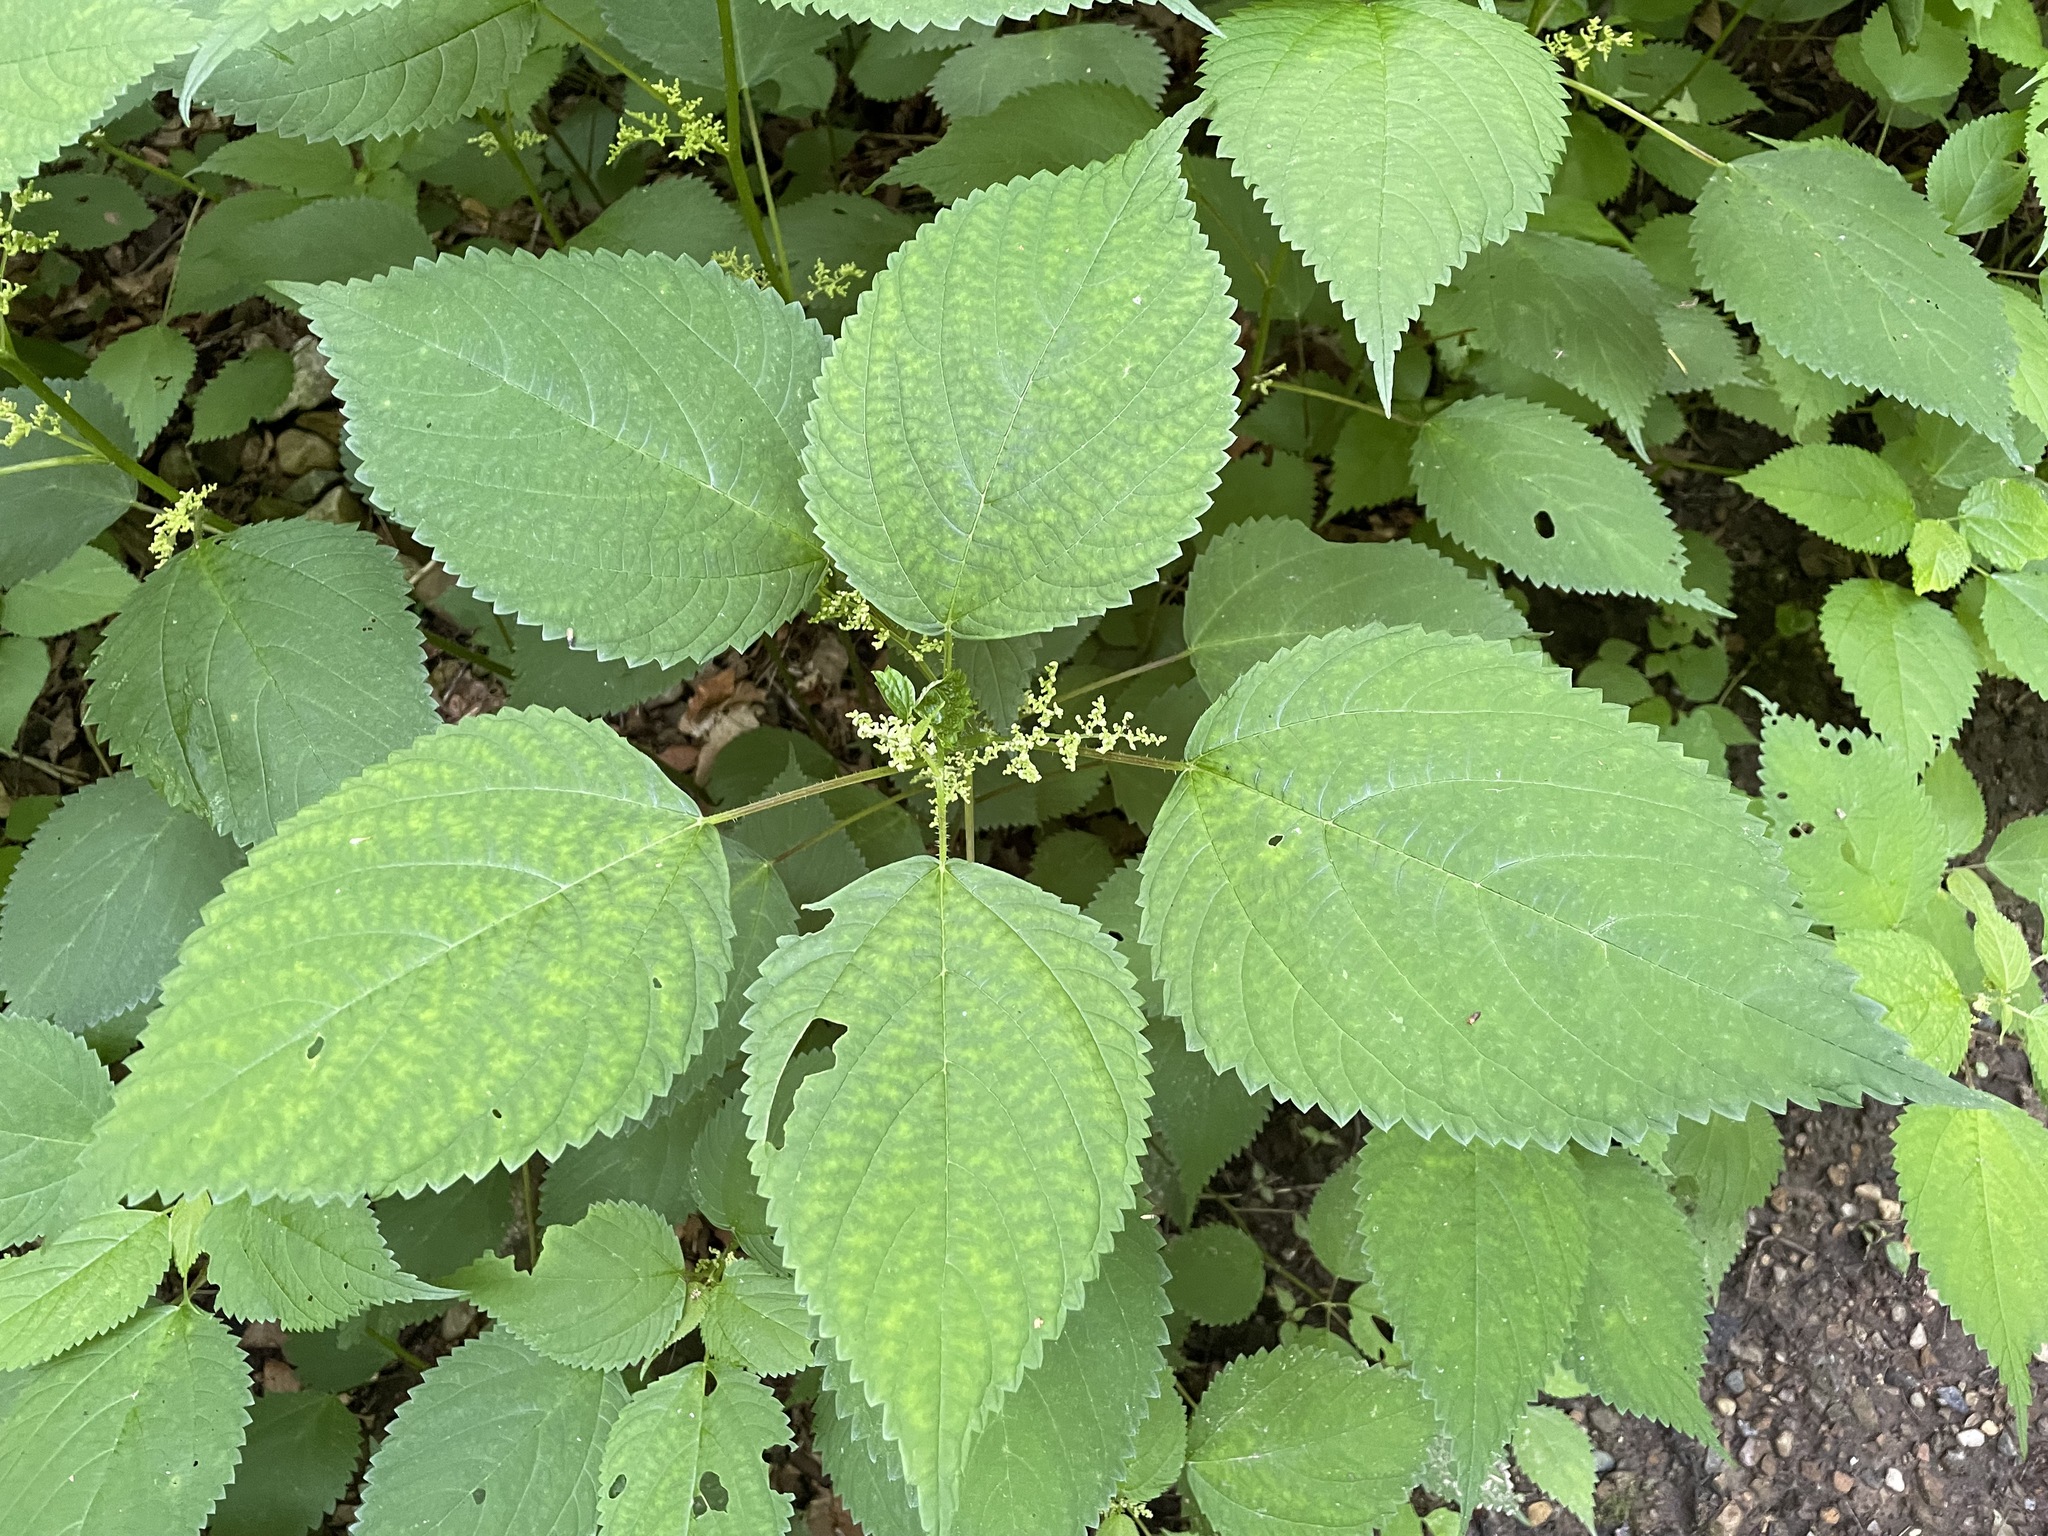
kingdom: Plantae
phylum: Tracheophyta
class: Magnoliopsida
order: Rosales
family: Urticaceae
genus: Laportea
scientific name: Laportea canadensis
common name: Canada nettle
